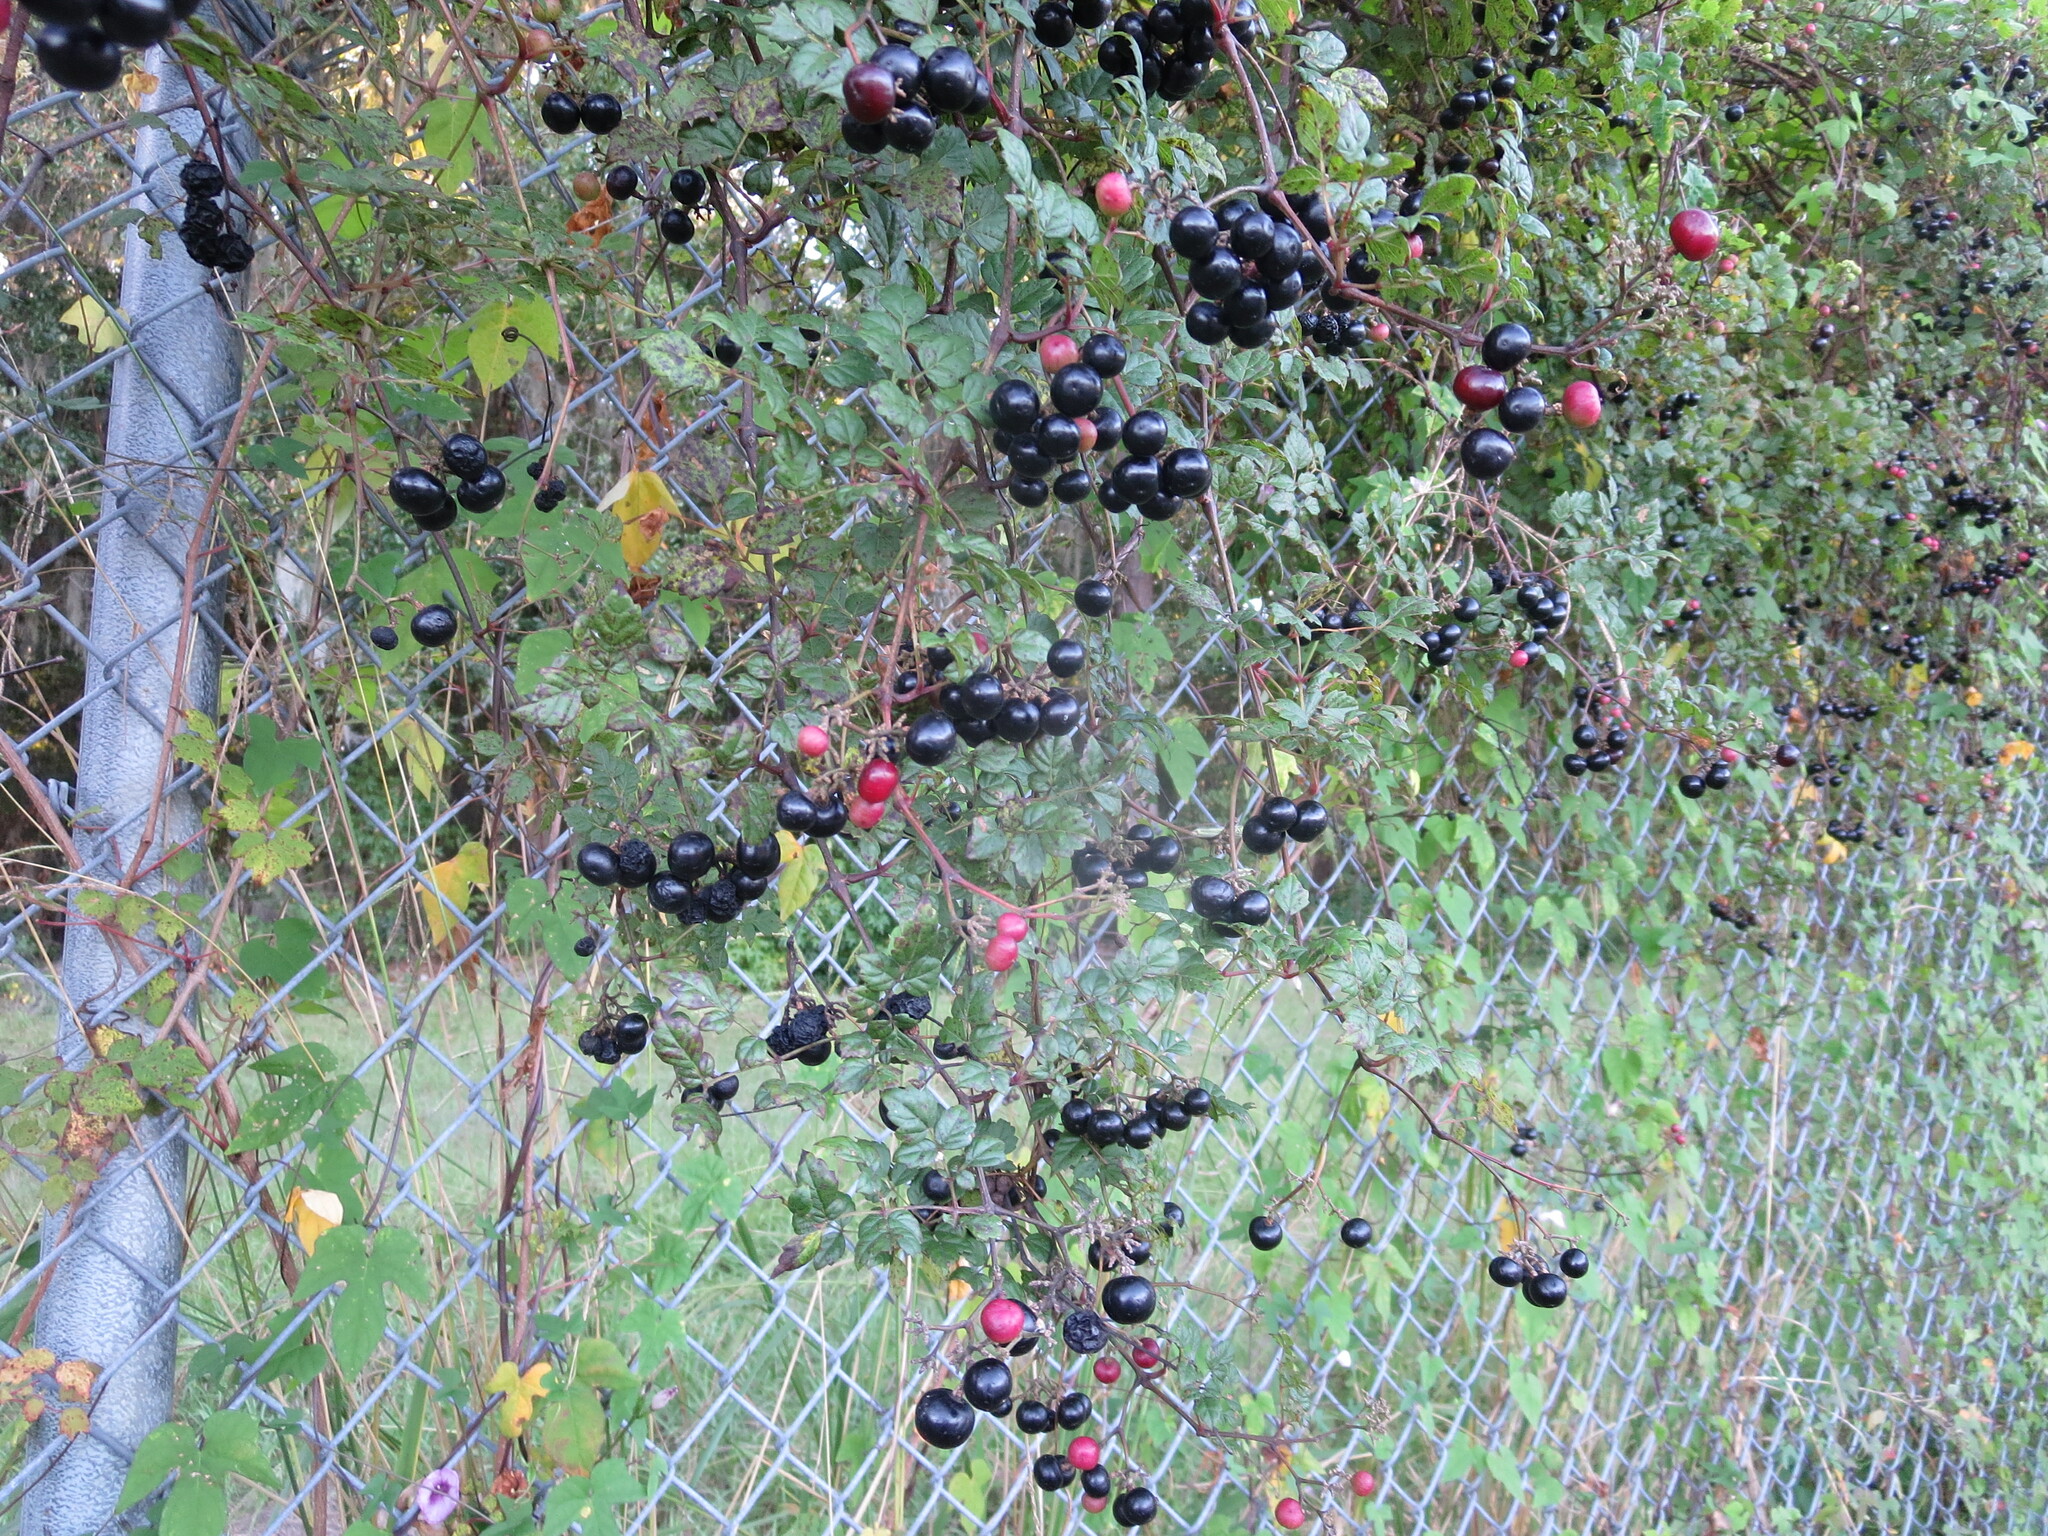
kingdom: Plantae
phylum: Tracheophyta
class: Magnoliopsida
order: Vitales
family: Vitaceae
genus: Nekemias
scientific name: Nekemias arborea
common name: Peppervine
